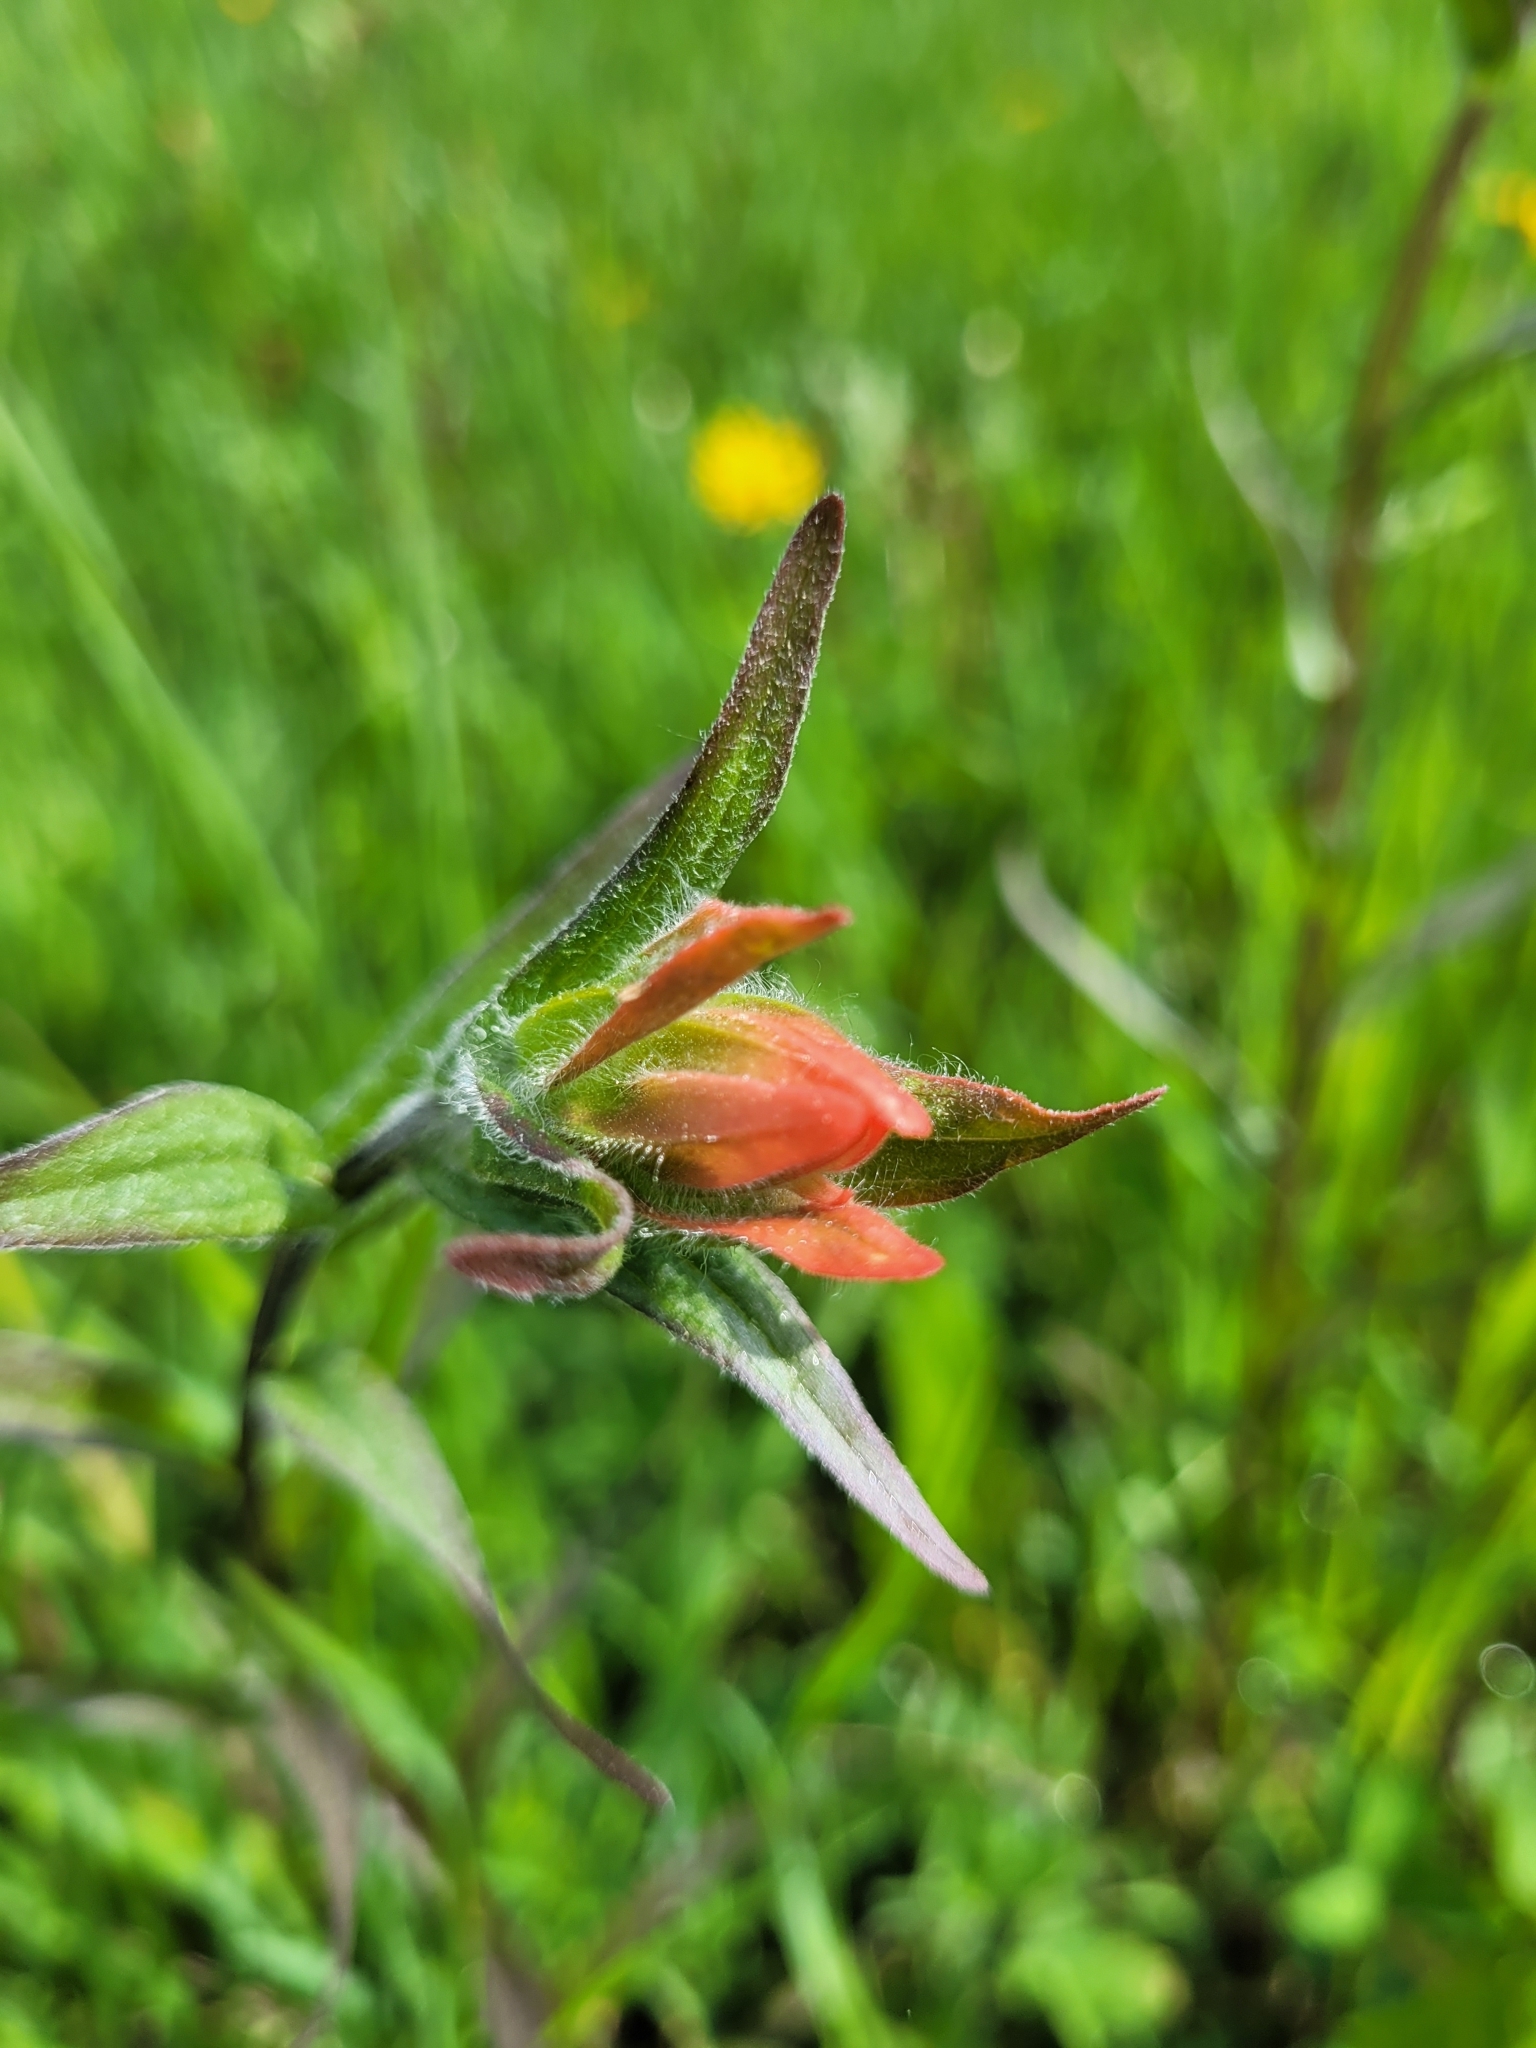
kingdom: Plantae
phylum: Tracheophyta
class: Magnoliopsida
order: Lamiales
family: Orobanchaceae
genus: Castilleja
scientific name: Castilleja miniata
